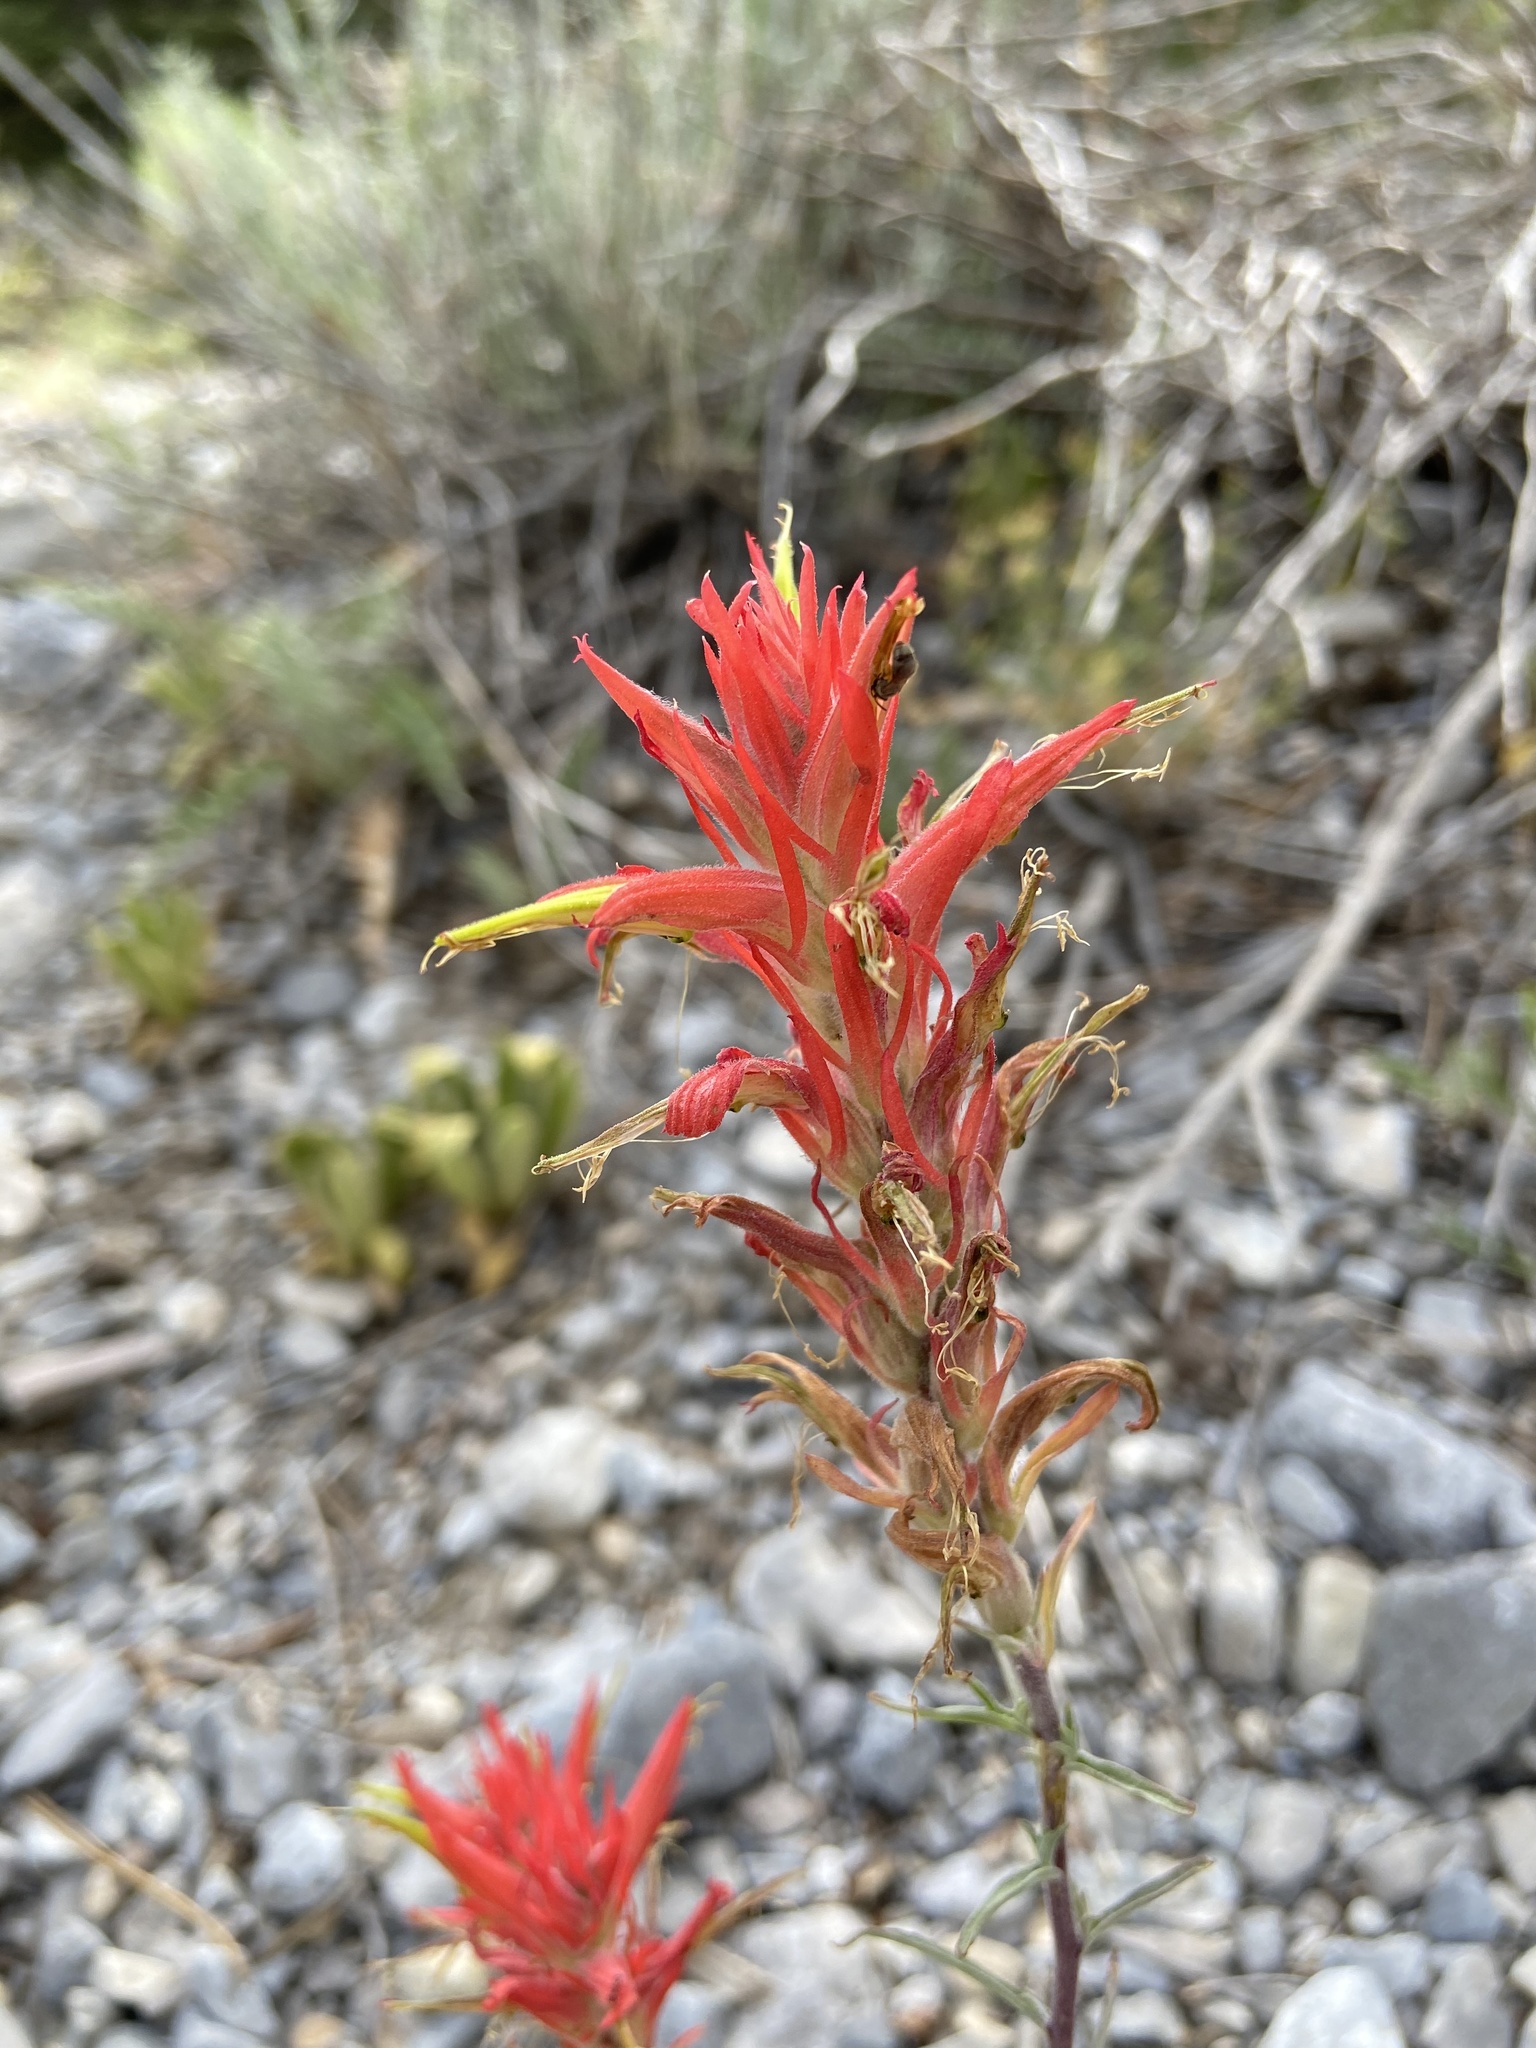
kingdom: Plantae
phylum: Tracheophyta
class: Magnoliopsida
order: Lamiales
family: Orobanchaceae
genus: Castilleja
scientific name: Castilleja linariifolia
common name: Wyoming paintbrush
